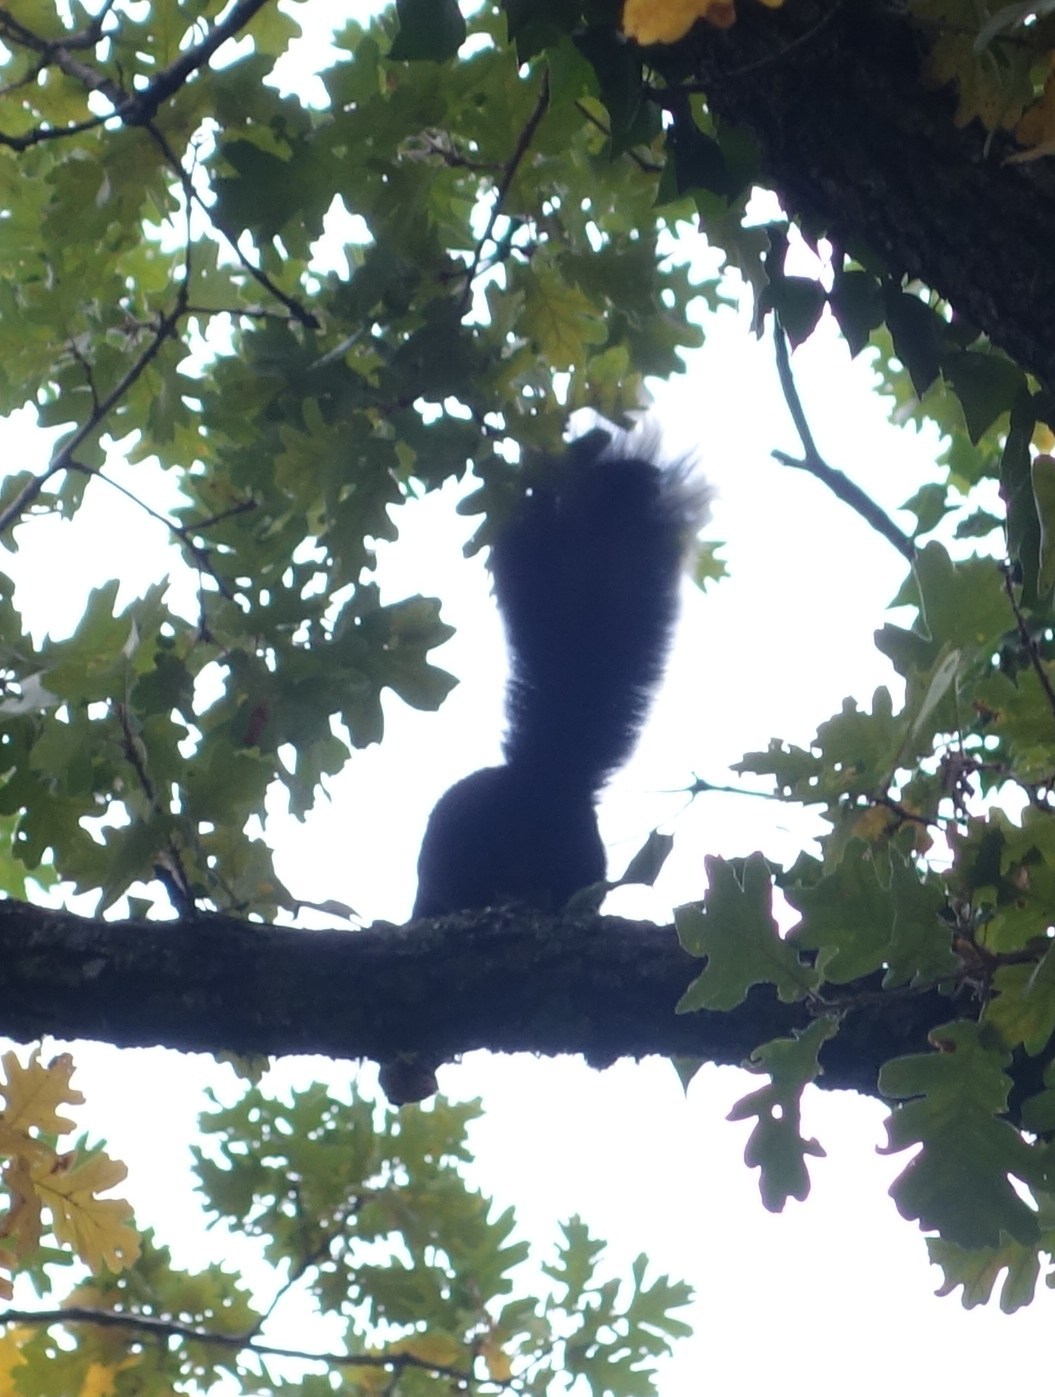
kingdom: Animalia
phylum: Chordata
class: Mammalia
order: Rodentia
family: Sciuridae
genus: Sciurus
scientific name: Sciurus
